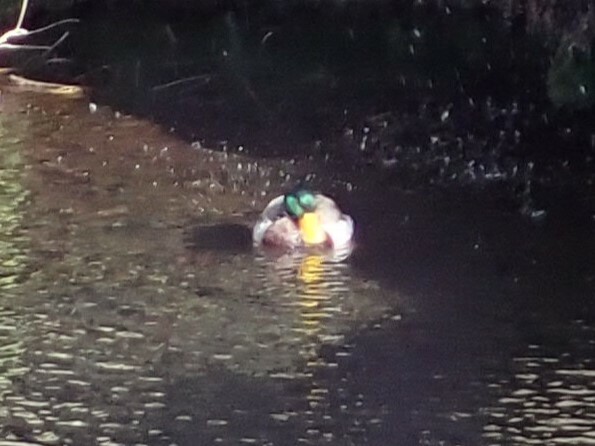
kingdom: Animalia
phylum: Chordata
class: Aves
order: Anseriformes
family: Anatidae
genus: Anas
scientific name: Anas platyrhynchos
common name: Mallard
